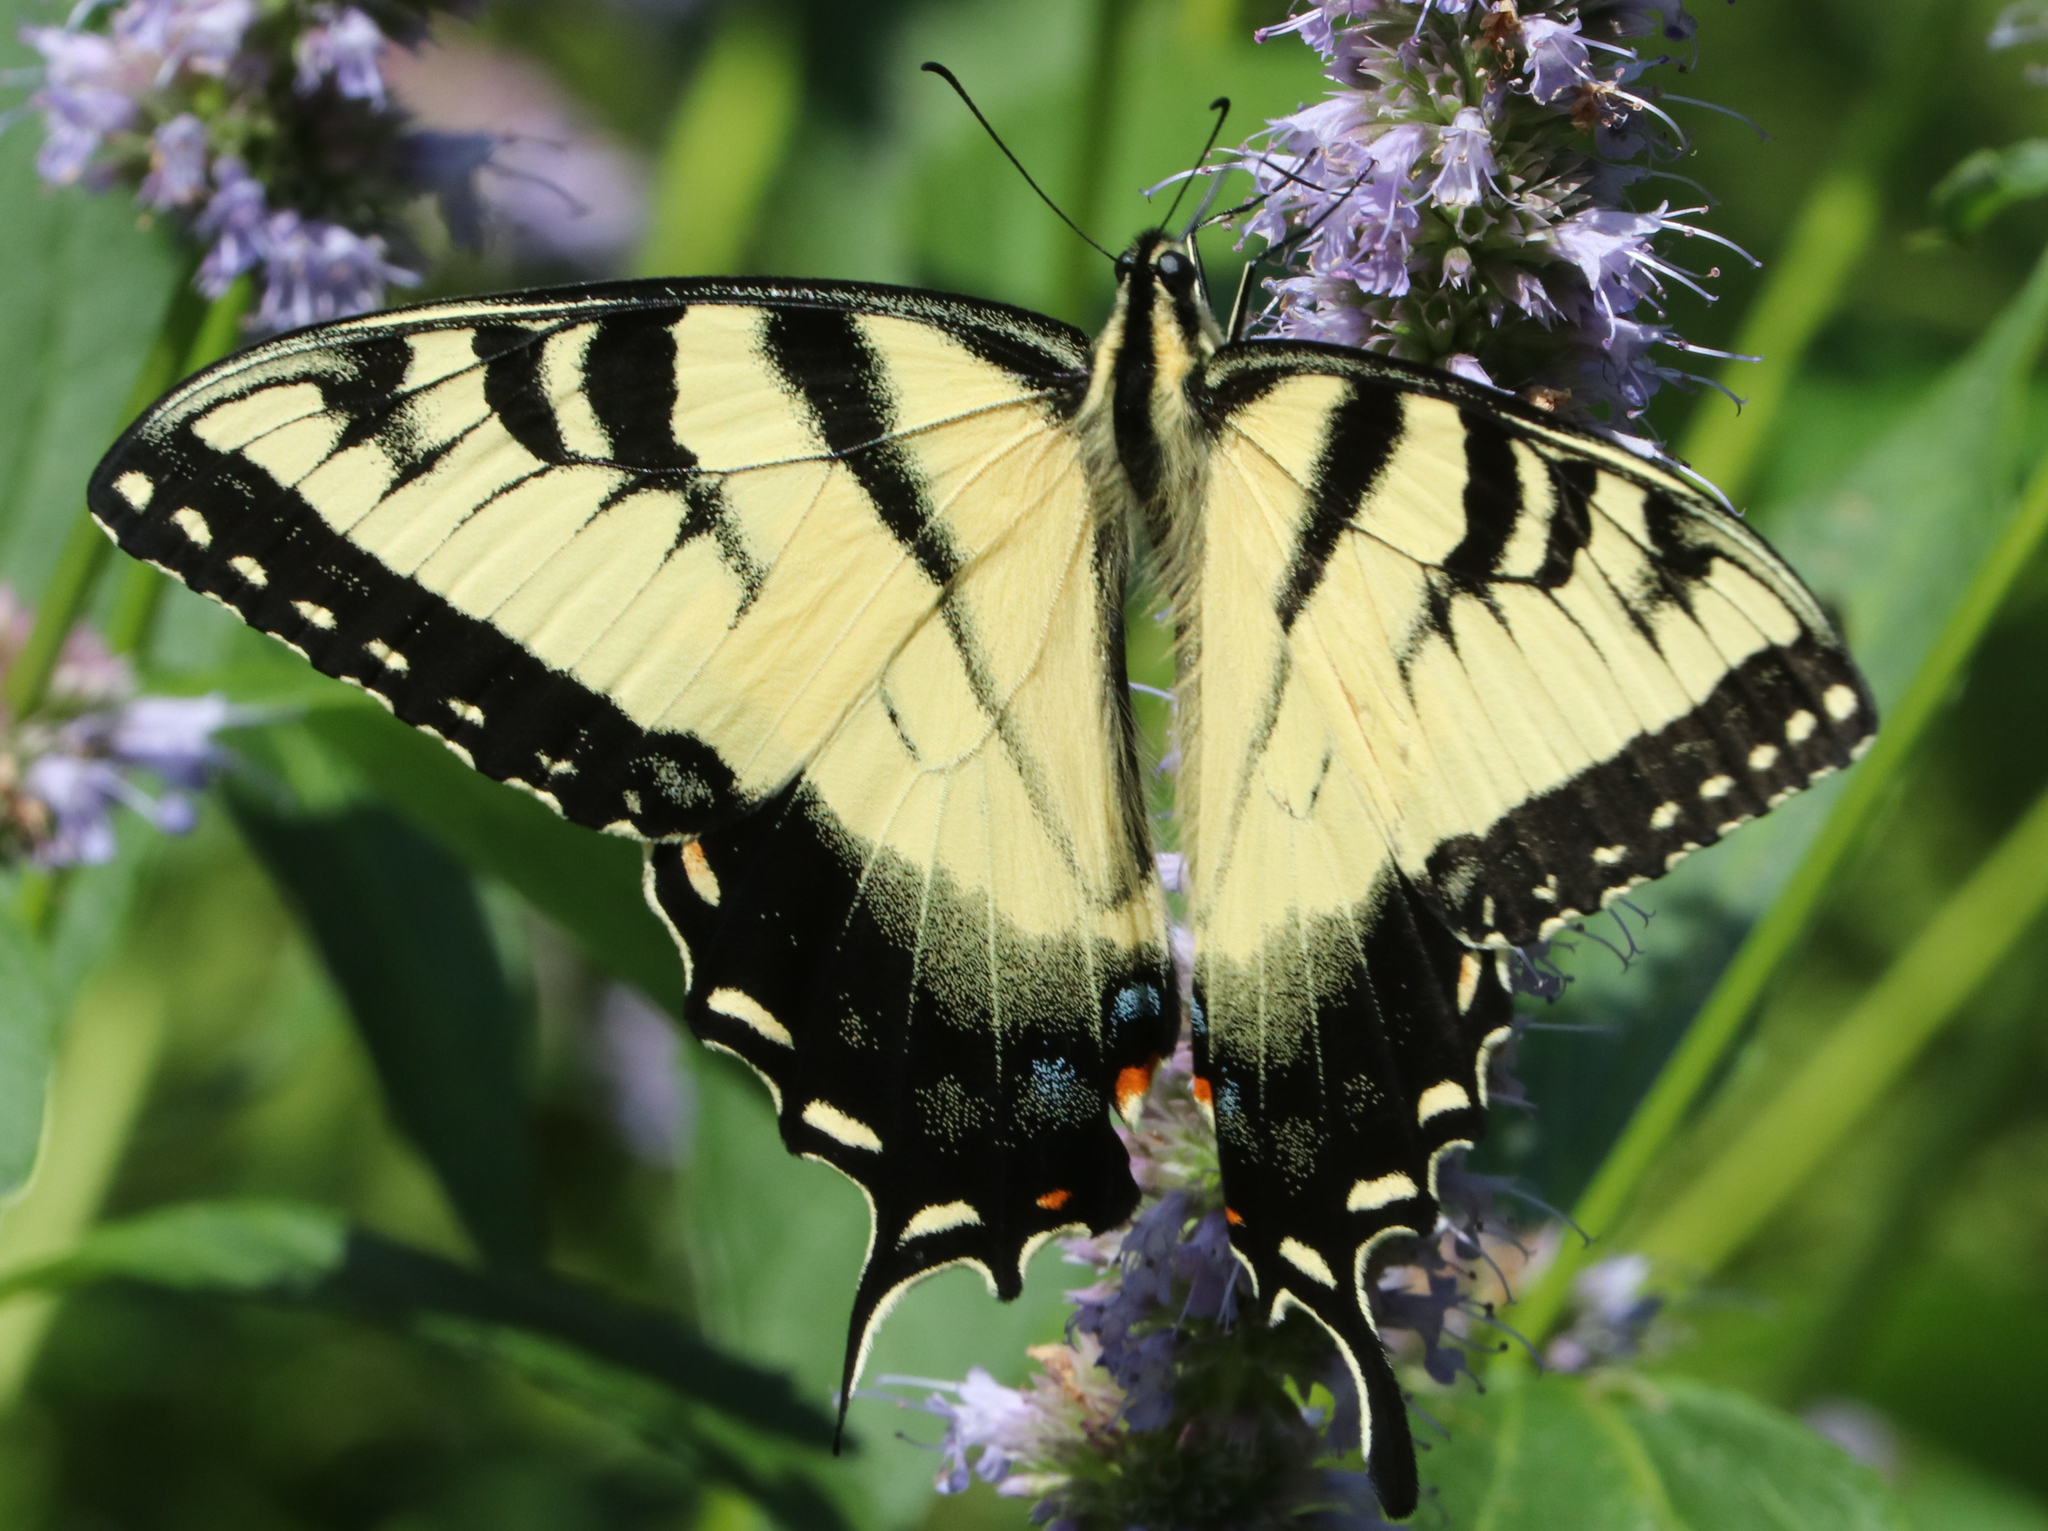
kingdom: Animalia
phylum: Arthropoda
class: Insecta
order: Lepidoptera
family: Papilionidae
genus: Papilio
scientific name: Papilio glaucus
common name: Tiger swallowtail
